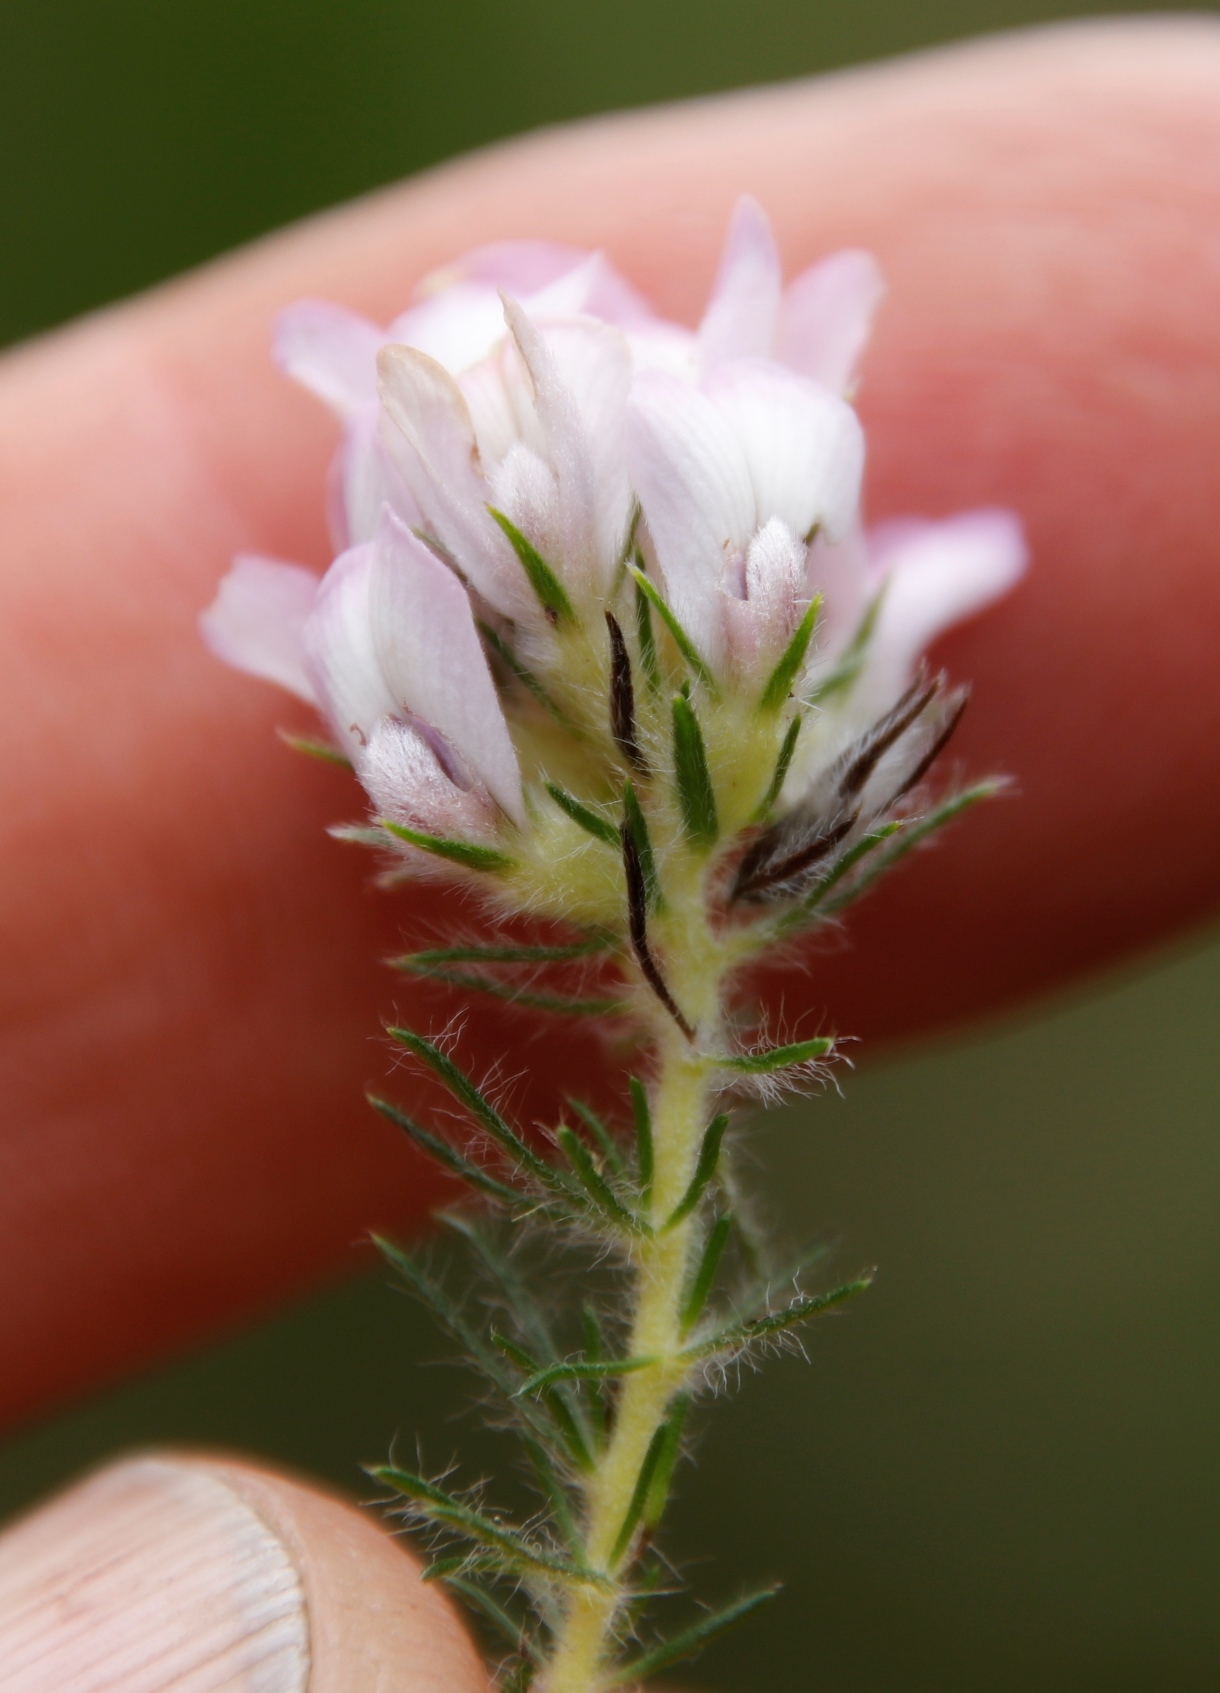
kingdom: Plantae
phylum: Tracheophyta
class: Magnoliopsida
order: Fabales
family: Fabaceae
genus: Aspalathus
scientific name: Aspalathus cephalotes
